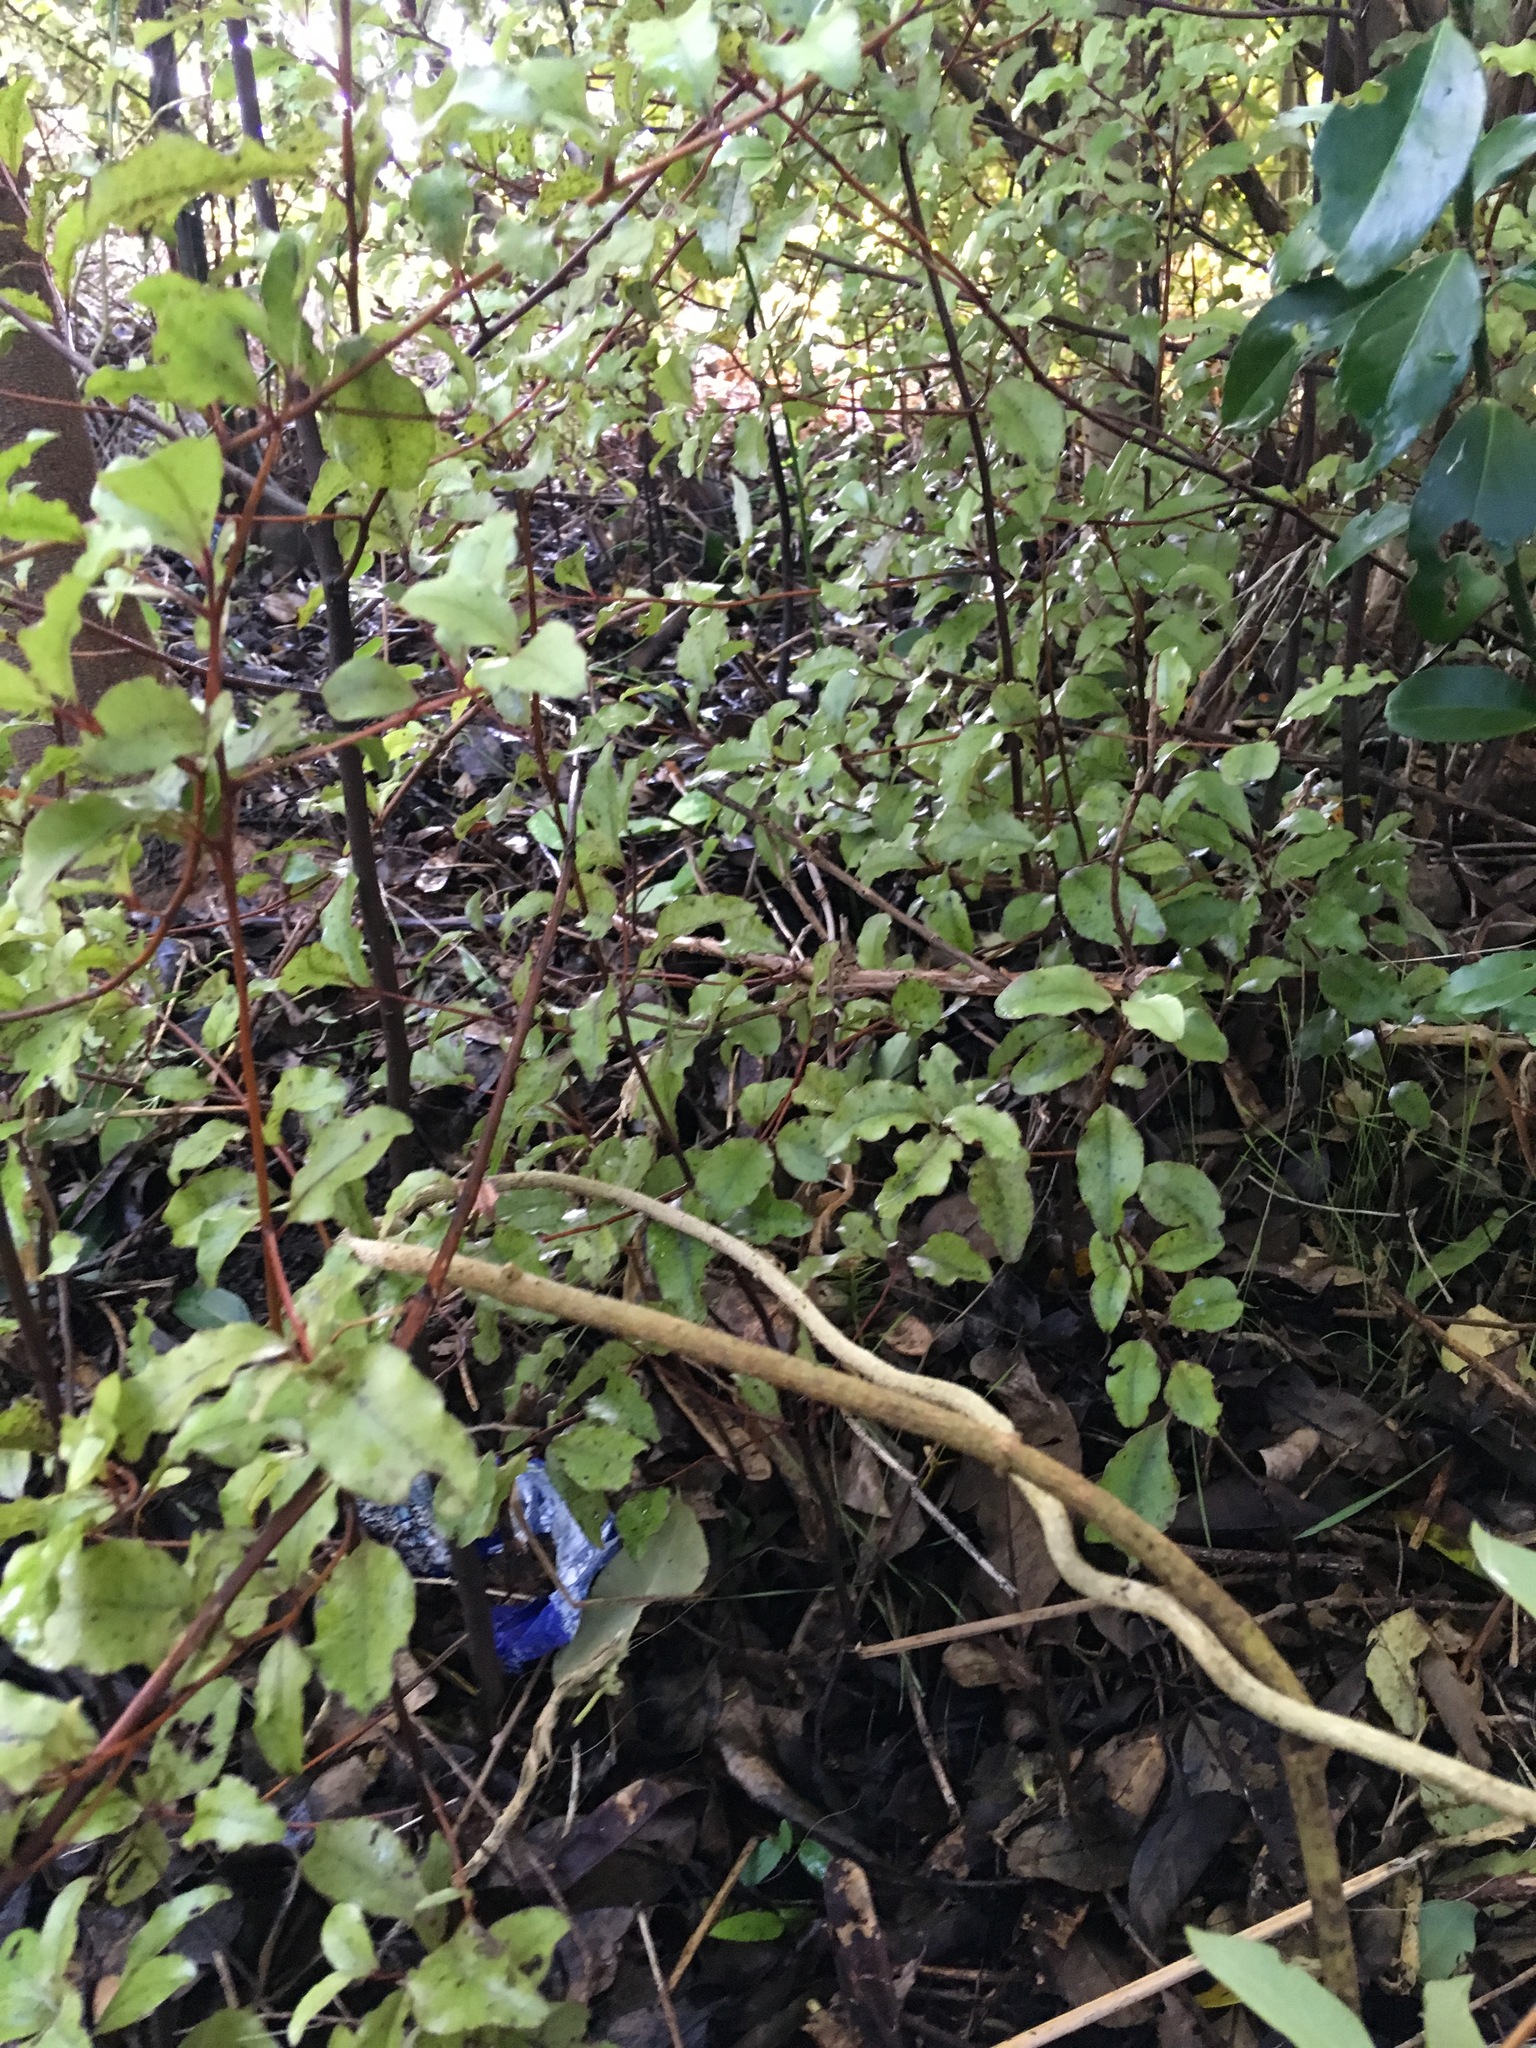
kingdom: Plantae
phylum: Tracheophyta
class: Magnoliopsida
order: Gentianales
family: Apocynaceae
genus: Araujia
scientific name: Araujia sericifera
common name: White bladderflower
